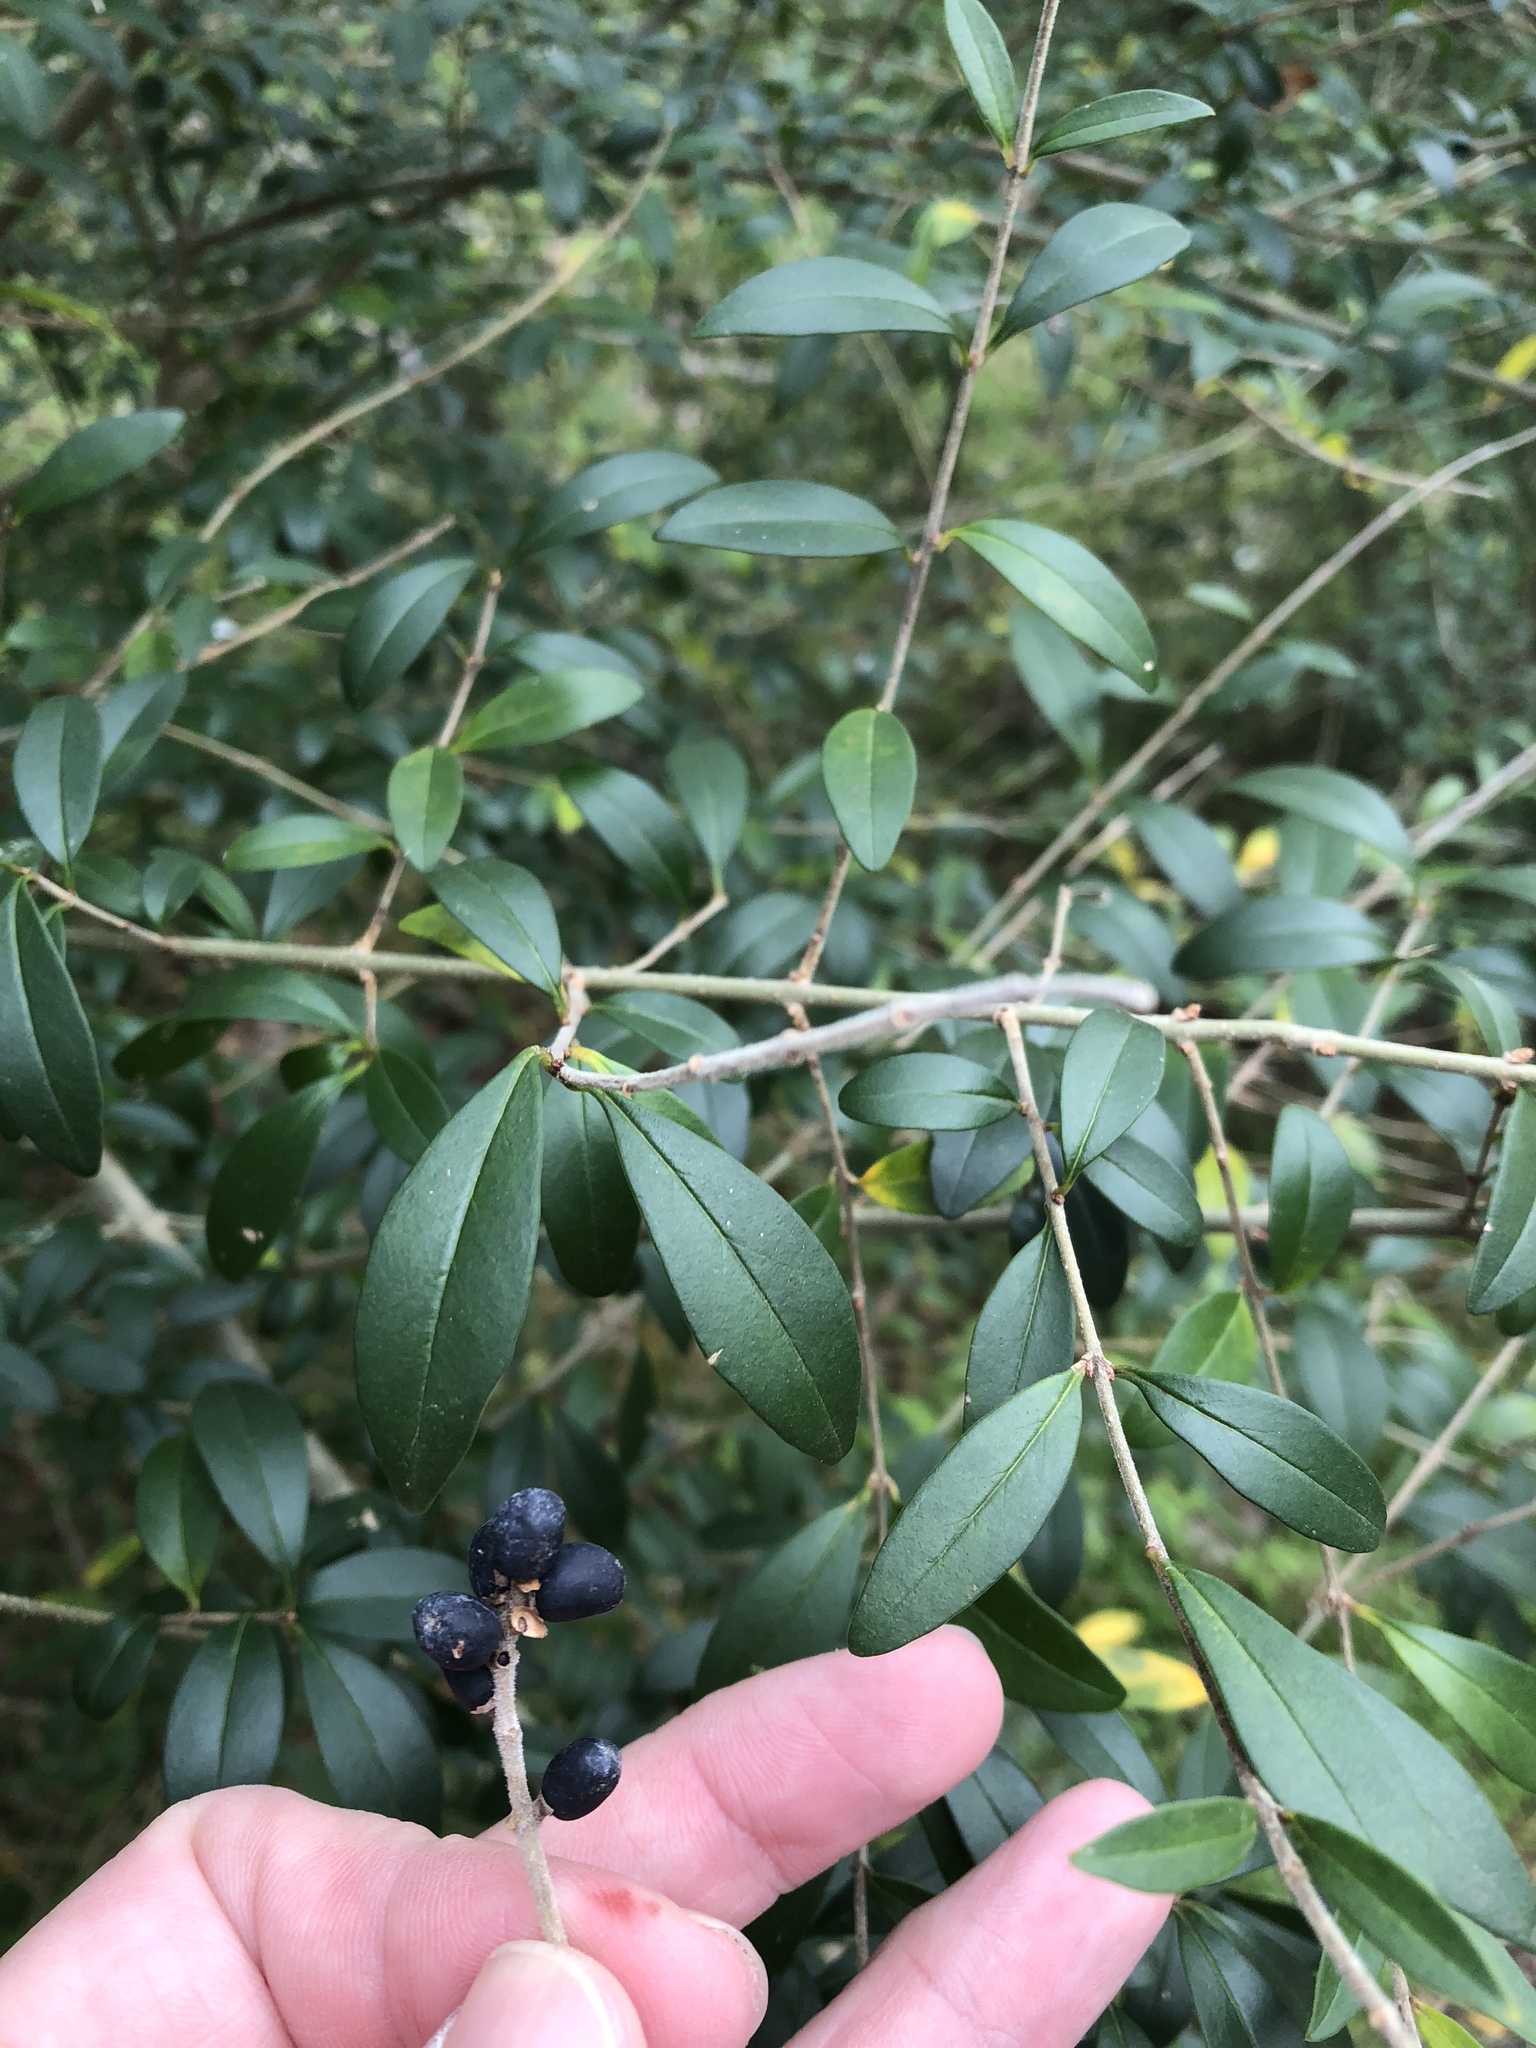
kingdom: Plantae
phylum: Tracheophyta
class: Magnoliopsida
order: Lamiales
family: Oleaceae
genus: Ligustrum
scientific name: Ligustrum quihoui
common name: Waxyleaf privet
